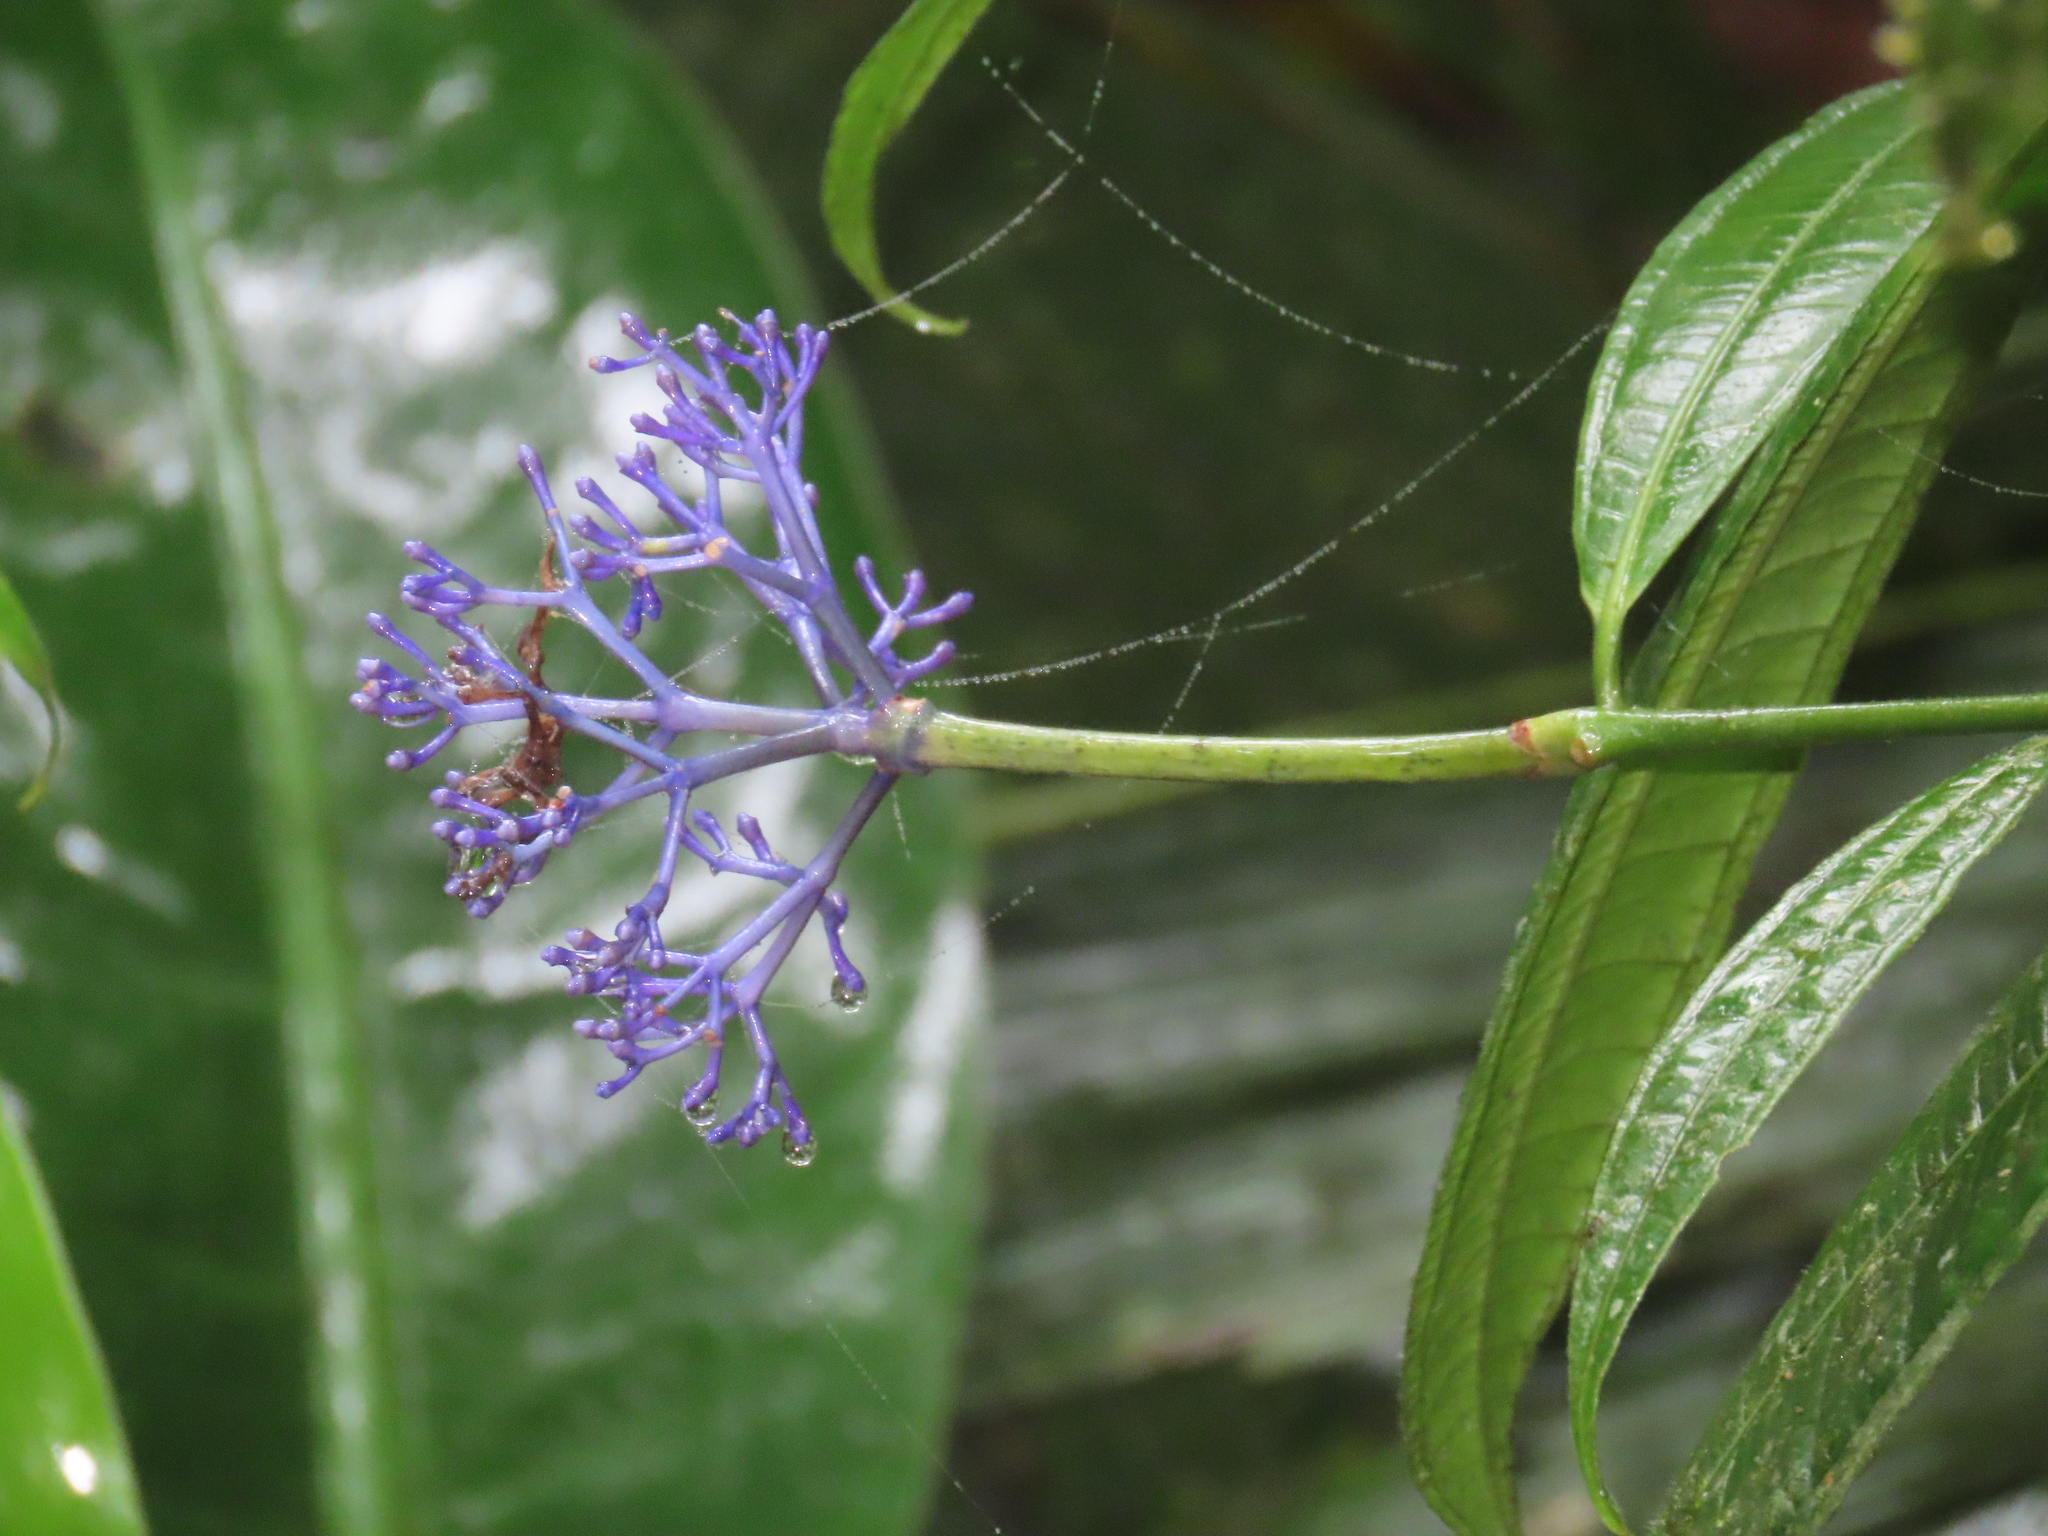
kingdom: Plantae
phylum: Tracheophyta
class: Magnoliopsida
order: Gentianales
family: Rubiaceae
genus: Faramea
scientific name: Faramea suerrensis
